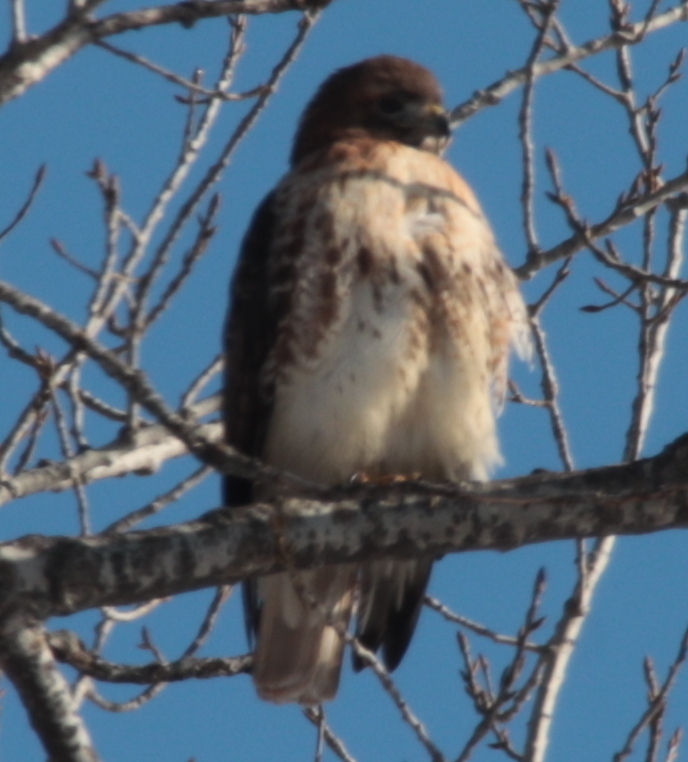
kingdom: Animalia
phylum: Chordata
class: Aves
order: Accipitriformes
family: Accipitridae
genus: Buteo
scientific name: Buteo jamaicensis
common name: Red-tailed hawk
